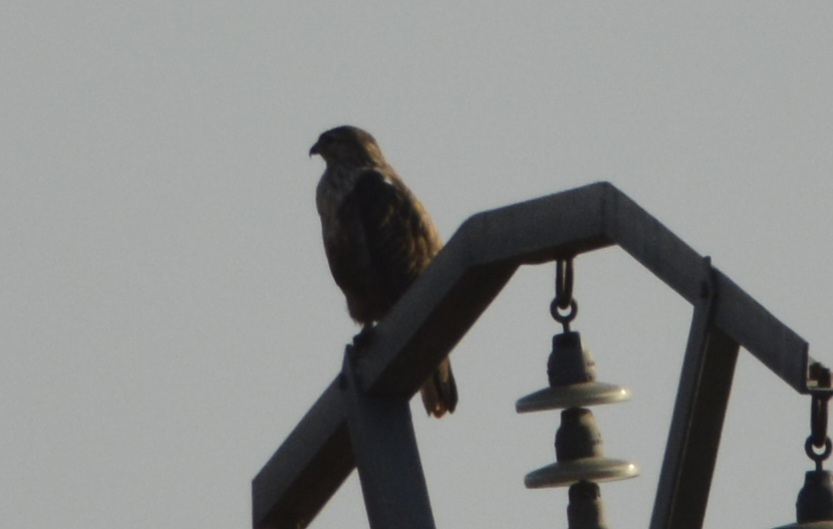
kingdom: Animalia
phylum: Chordata
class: Aves
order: Accipitriformes
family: Accipitridae
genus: Buteo
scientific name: Buteo buteo
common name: Common buzzard
